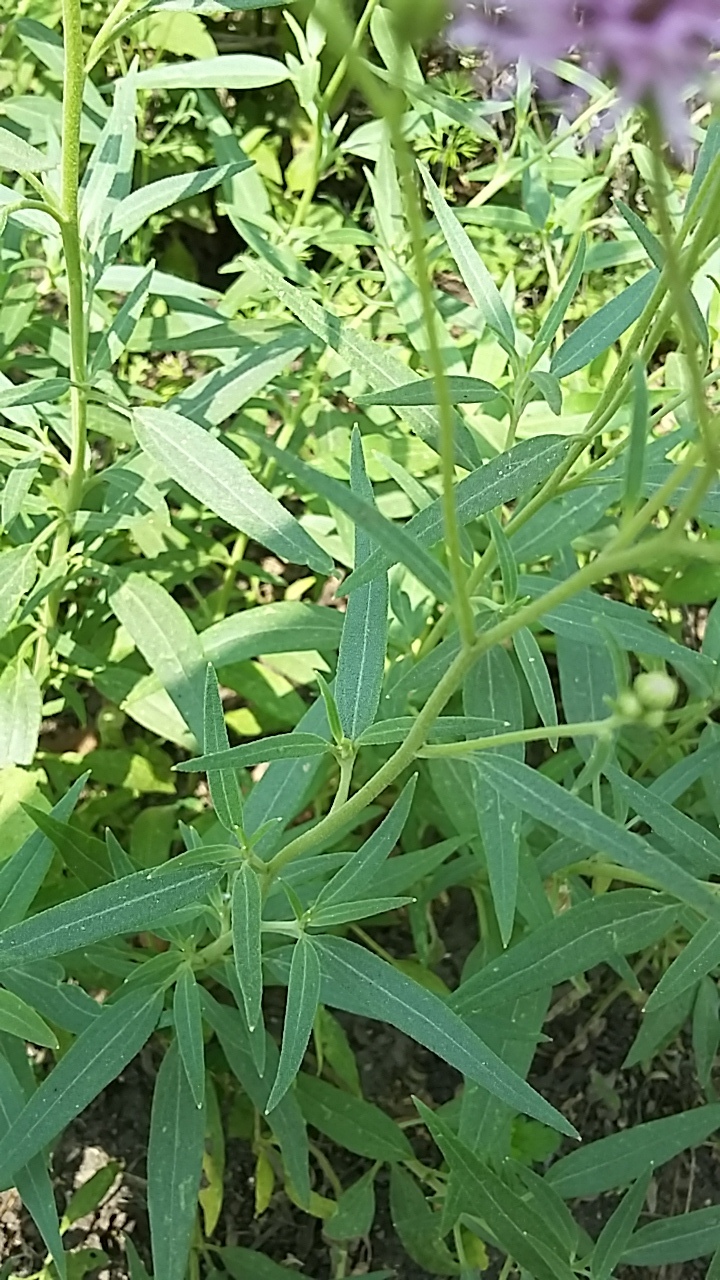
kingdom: Plantae
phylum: Tracheophyta
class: Magnoliopsida
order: Asterales
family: Asteraceae
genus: Palafoxia
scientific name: Palafoxia texana
